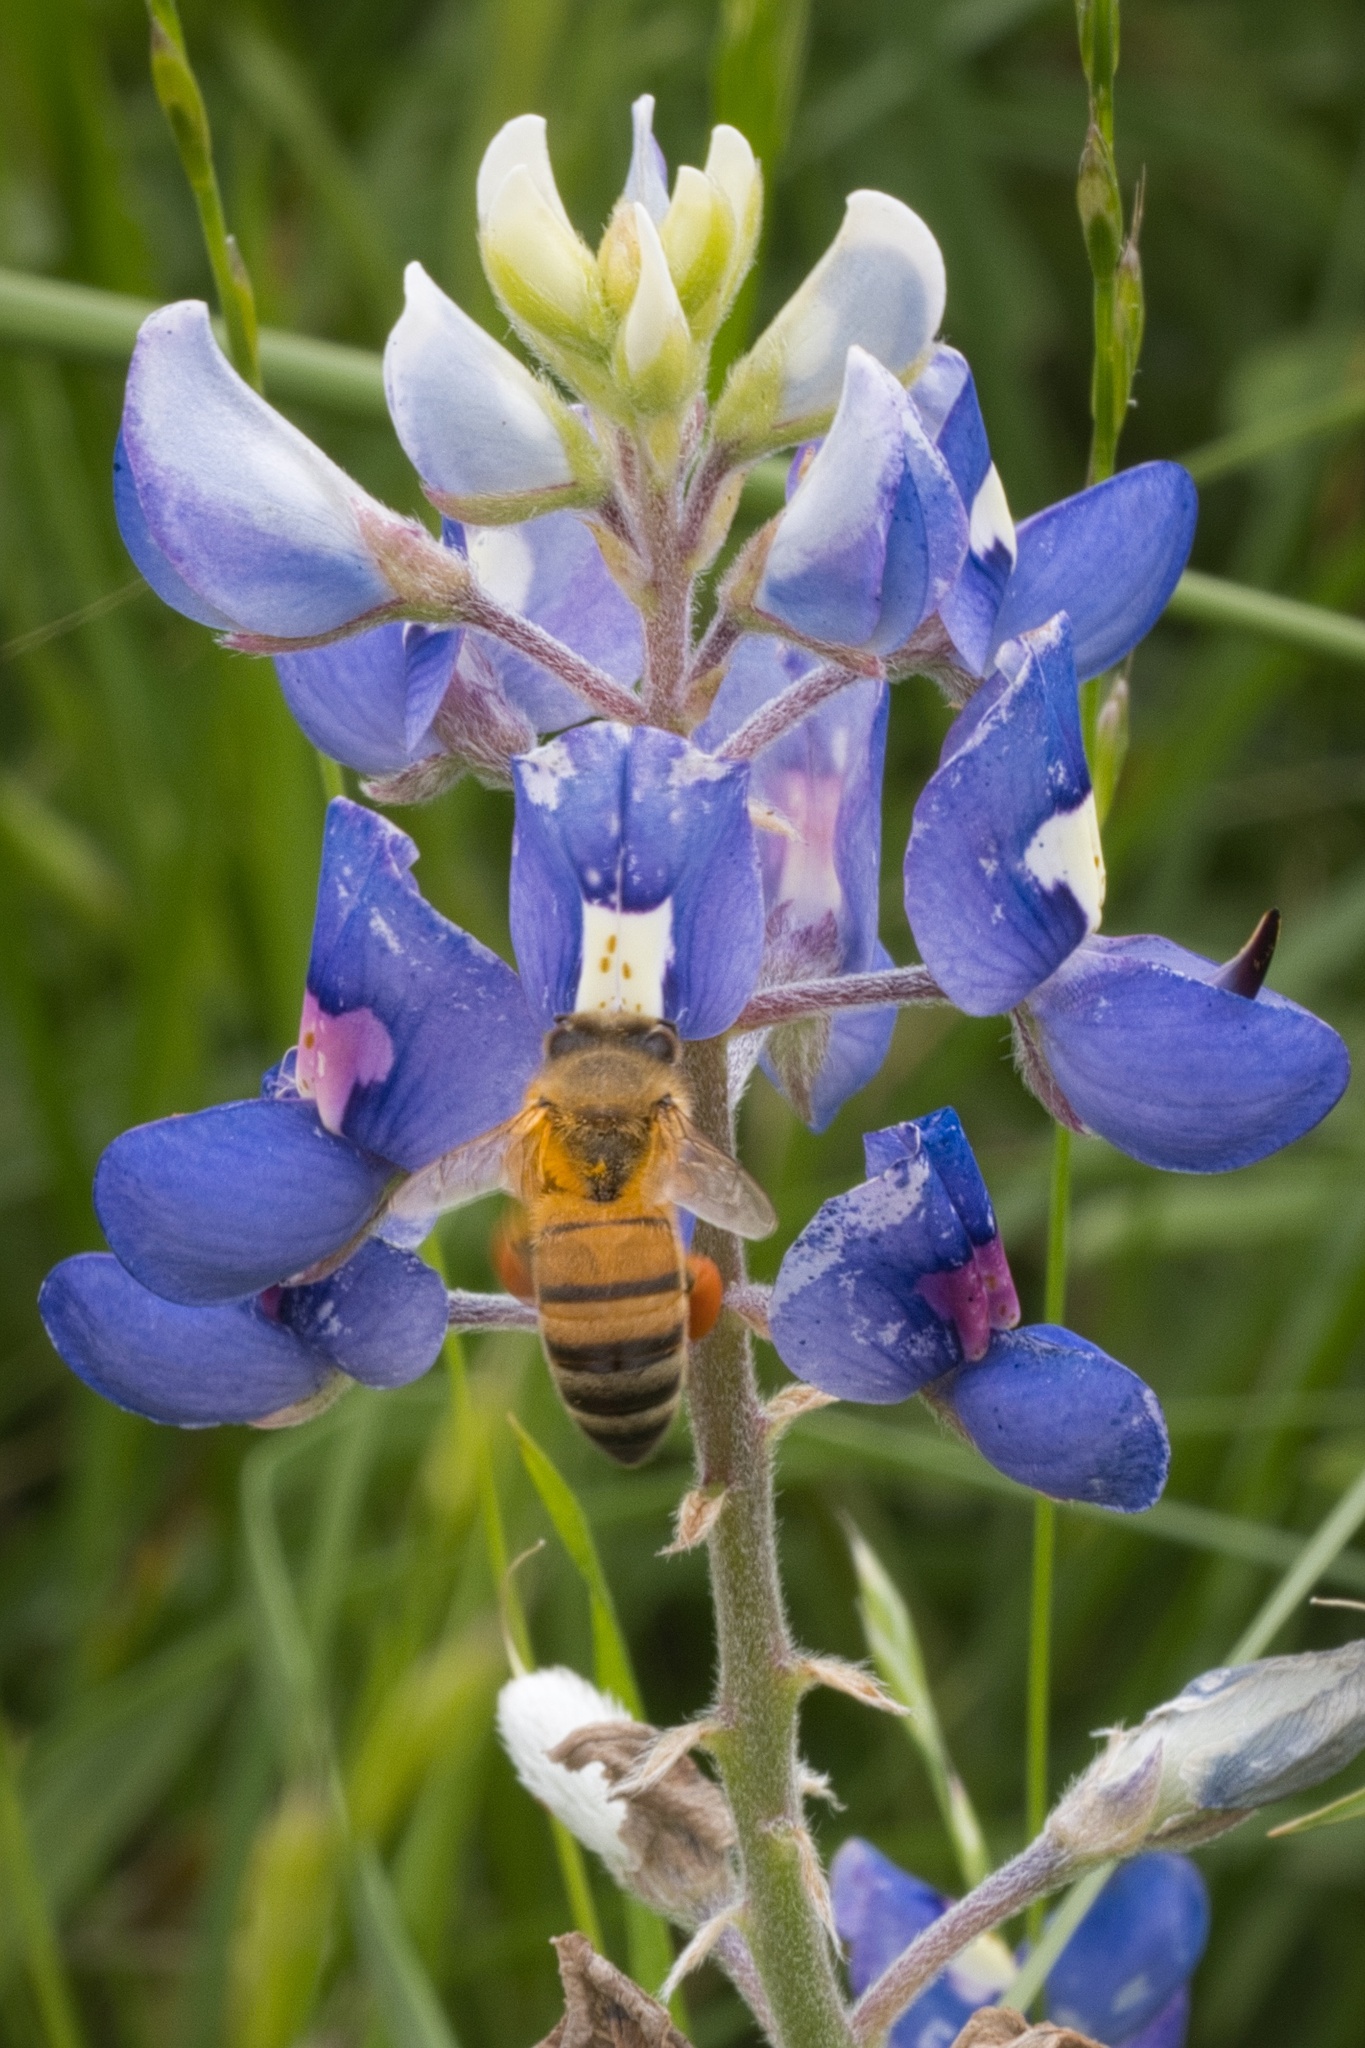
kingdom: Animalia
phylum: Arthropoda
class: Insecta
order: Hymenoptera
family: Apidae
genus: Apis
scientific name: Apis mellifera
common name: Honey bee
